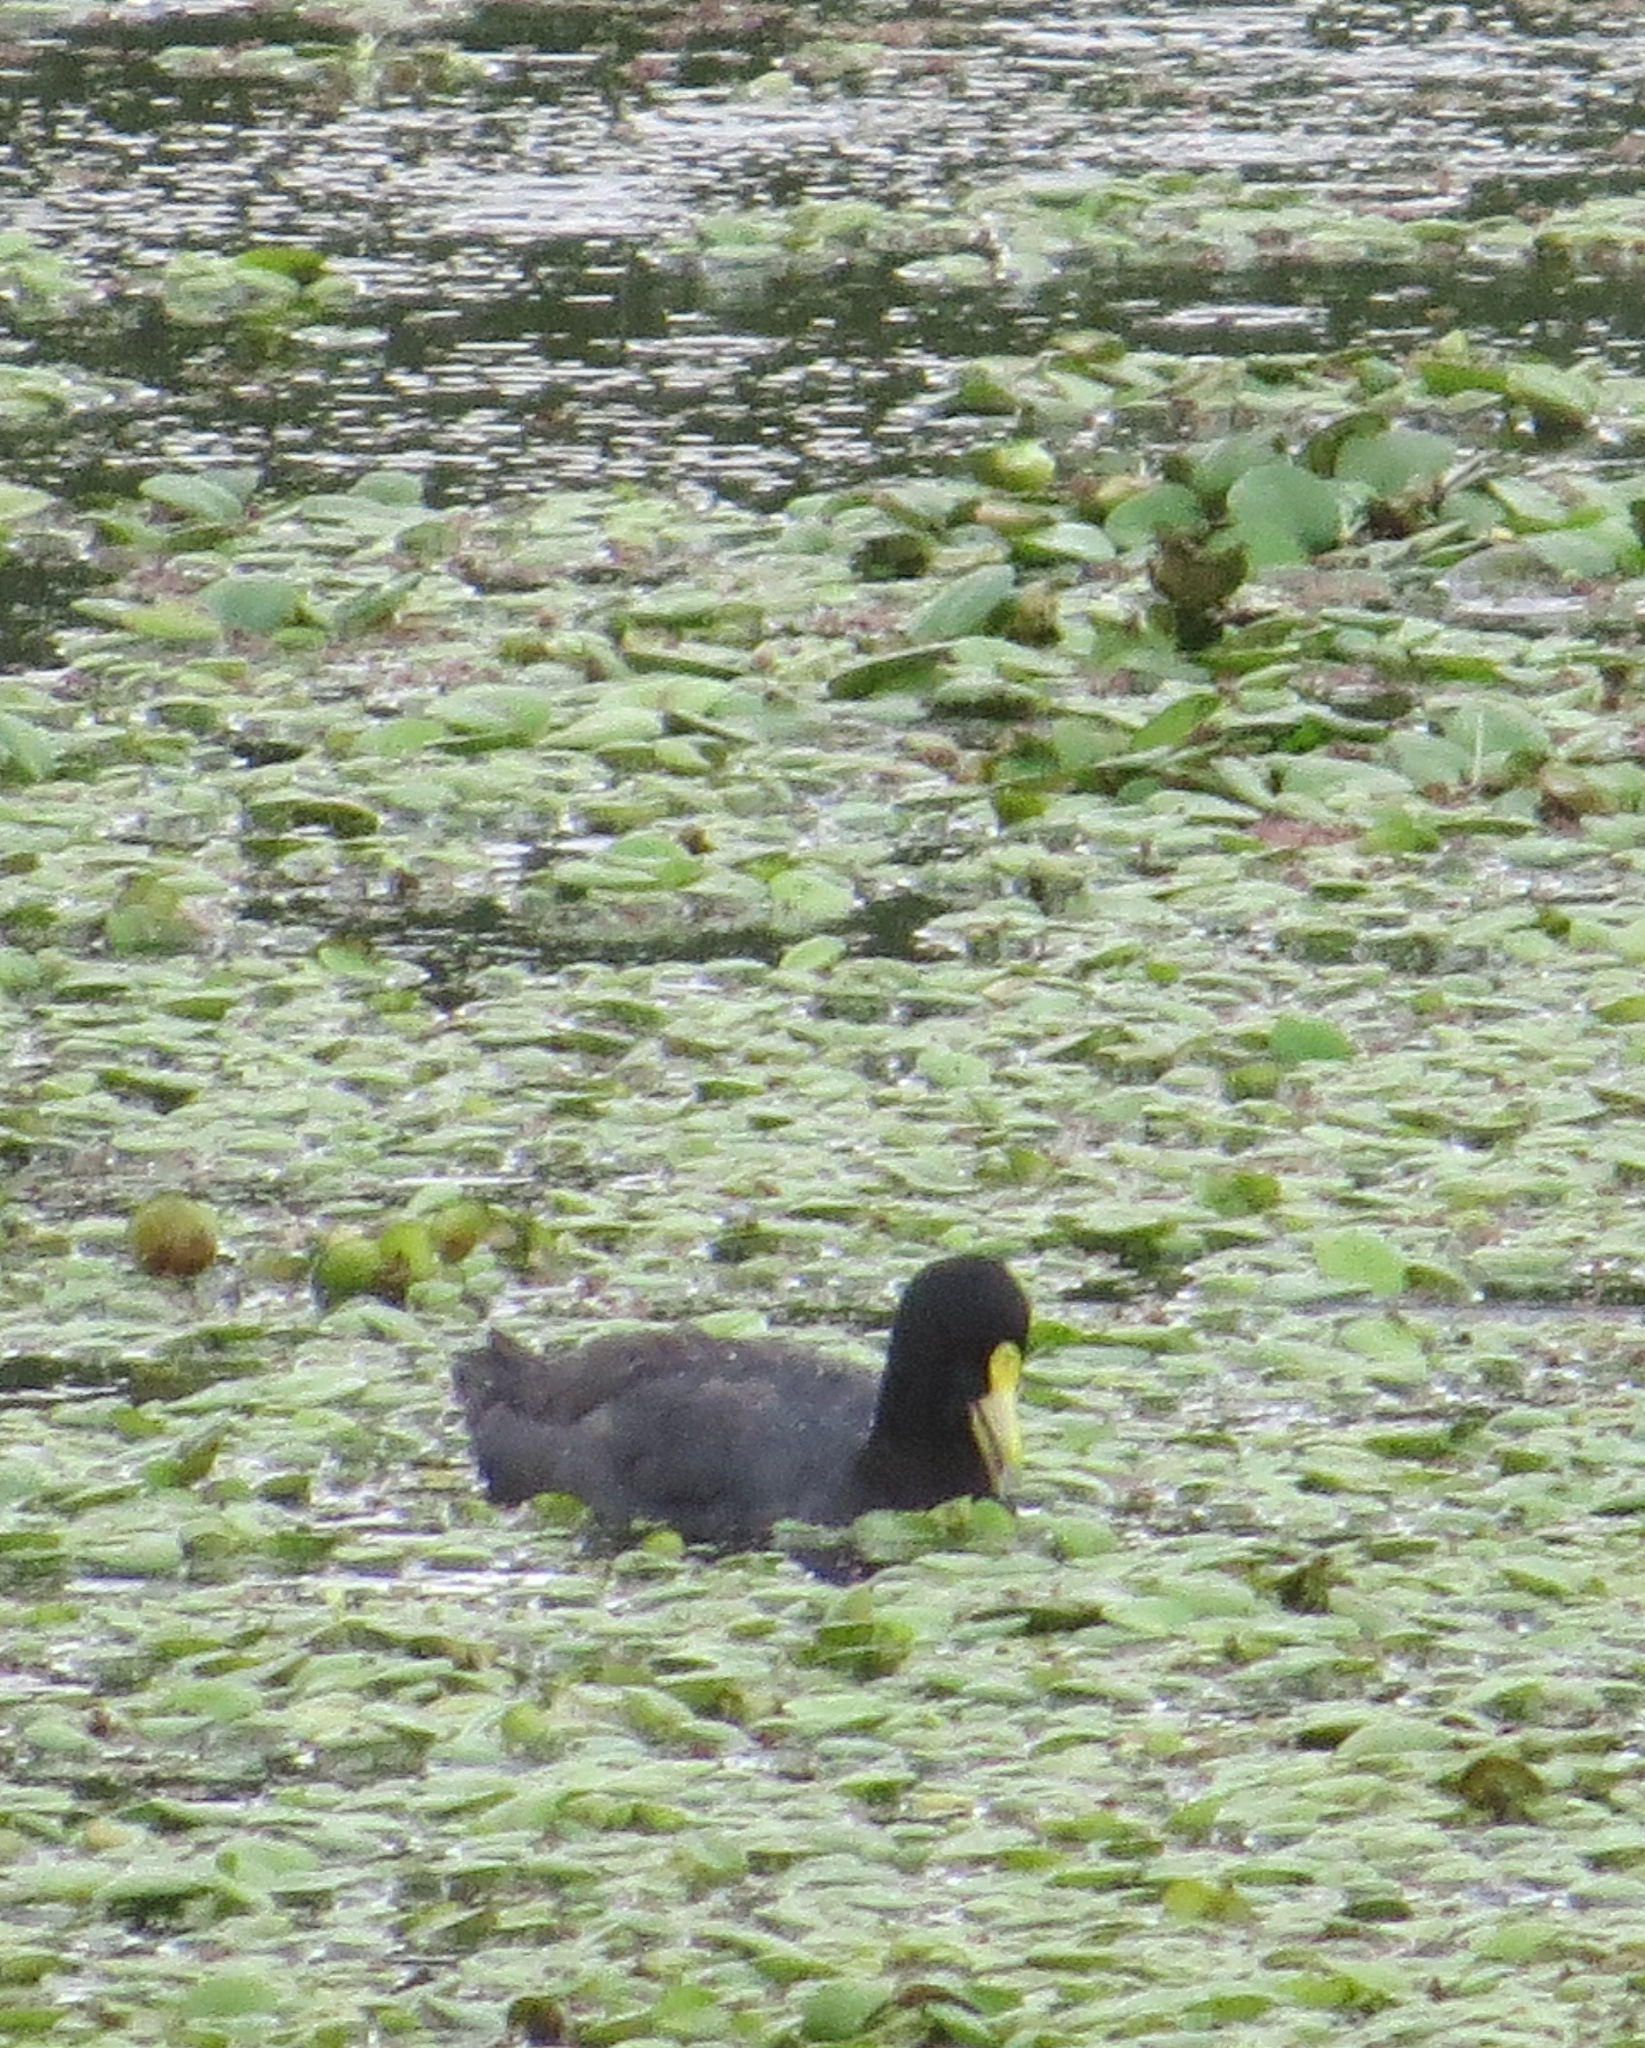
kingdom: Animalia
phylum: Chordata
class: Aves
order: Gruiformes
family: Rallidae
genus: Fulica
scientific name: Fulica leucoptera
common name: White-winged coot
